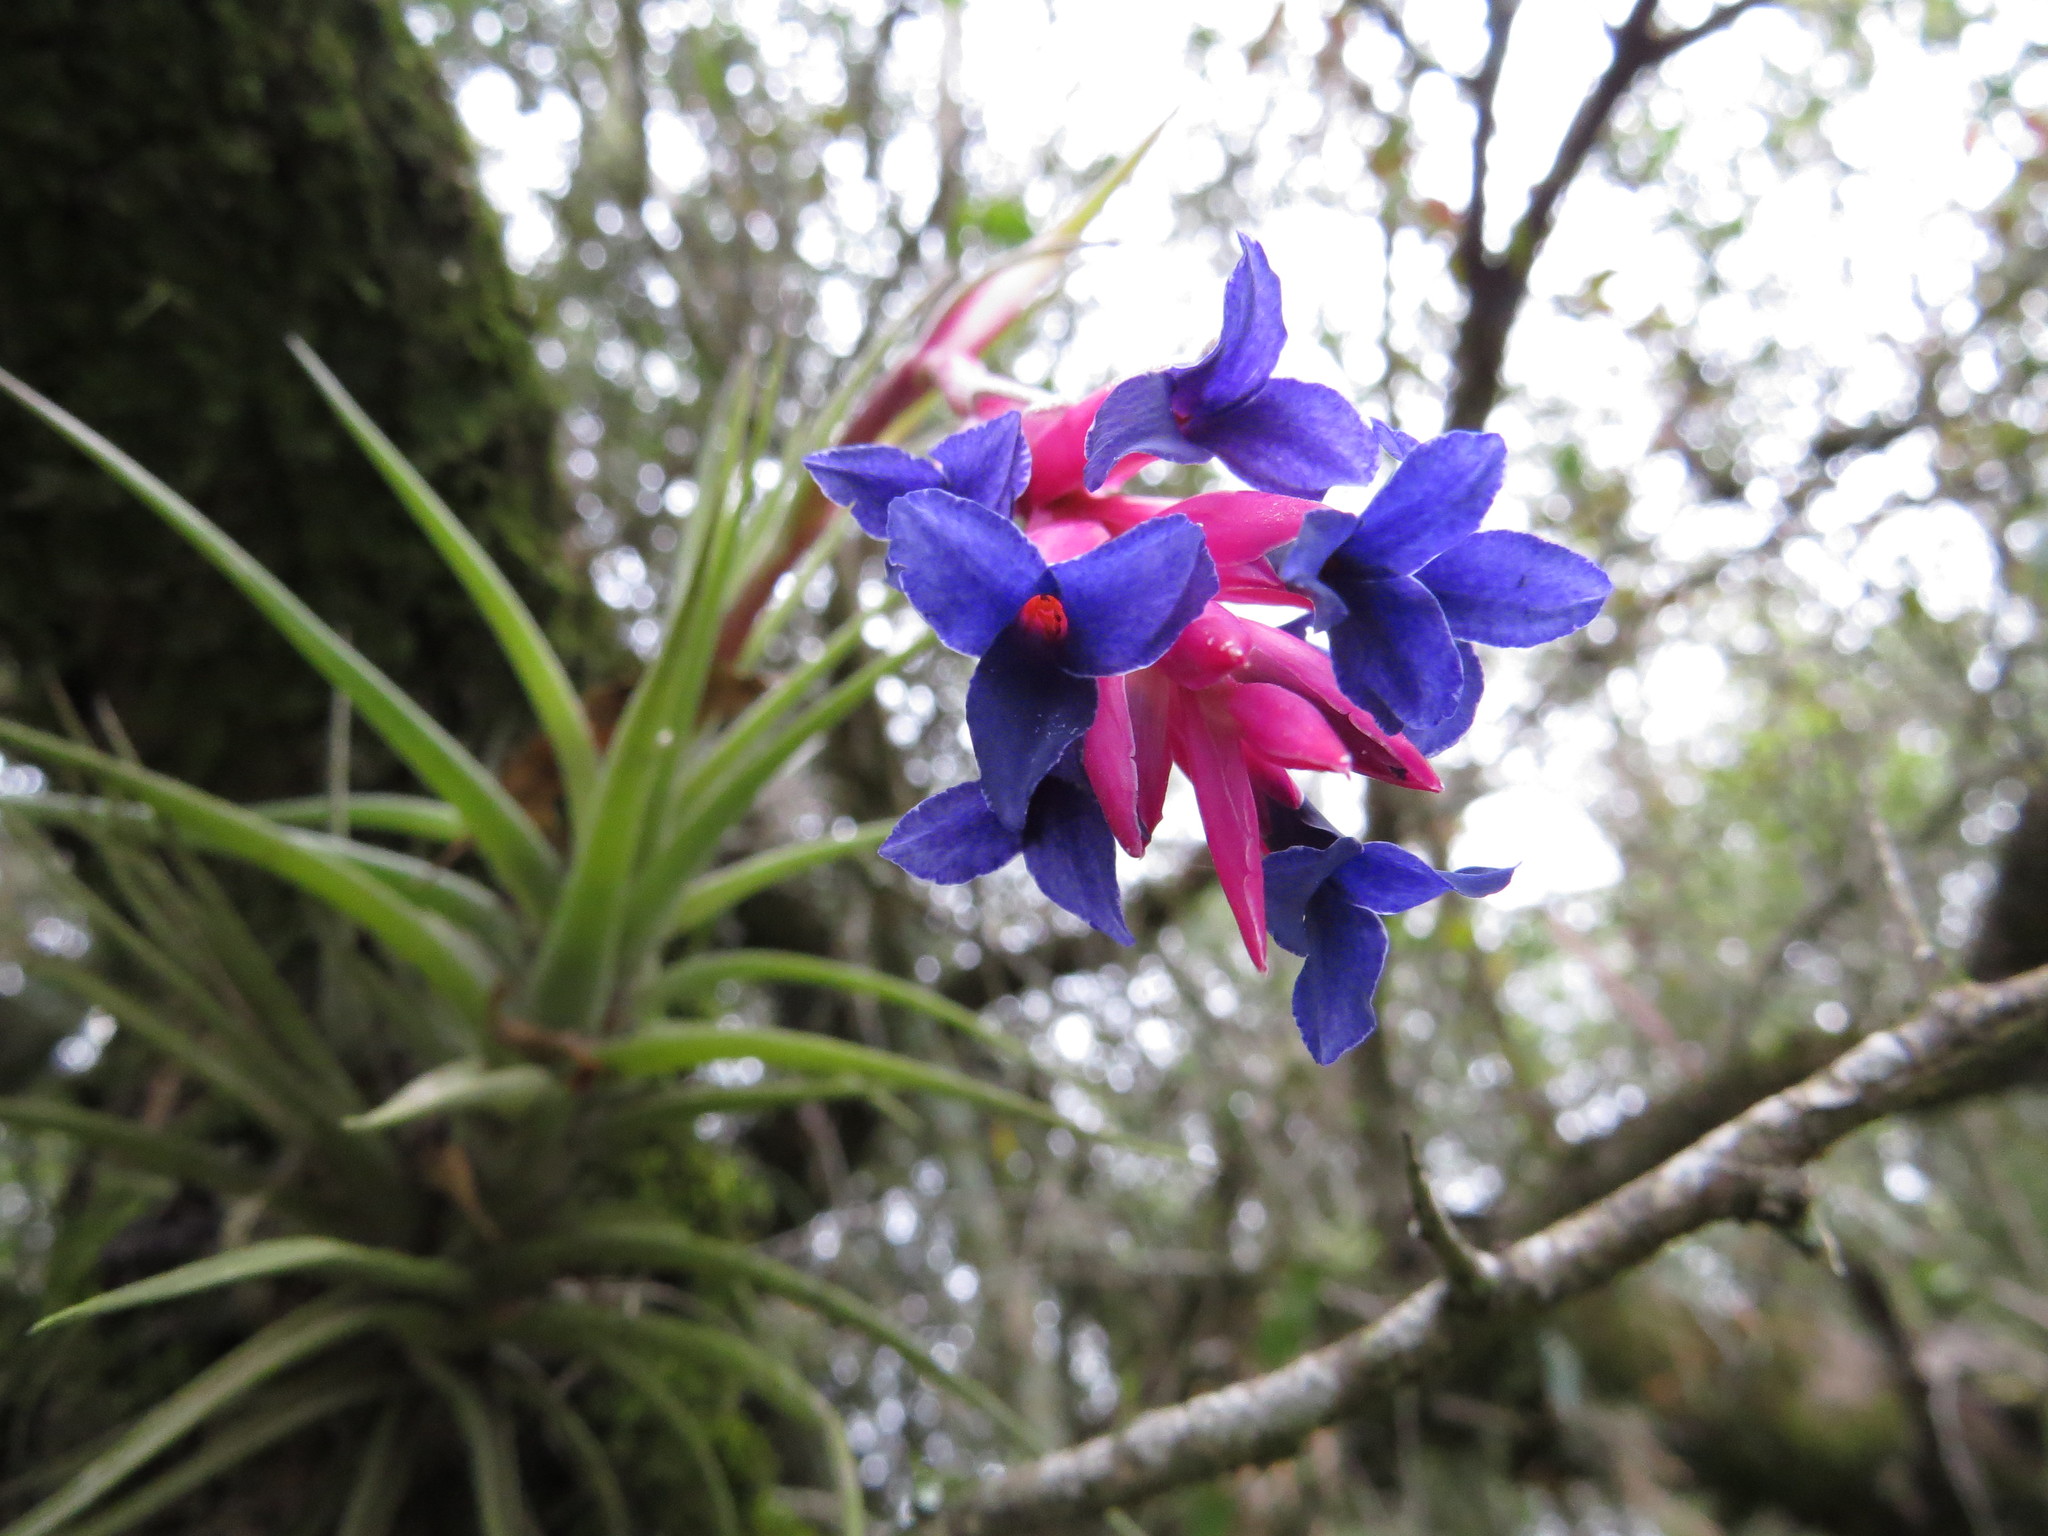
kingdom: Plantae
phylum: Tracheophyta
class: Liliopsida
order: Poales
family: Bromeliaceae
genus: Tillandsia
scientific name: Tillandsia aeranthos
